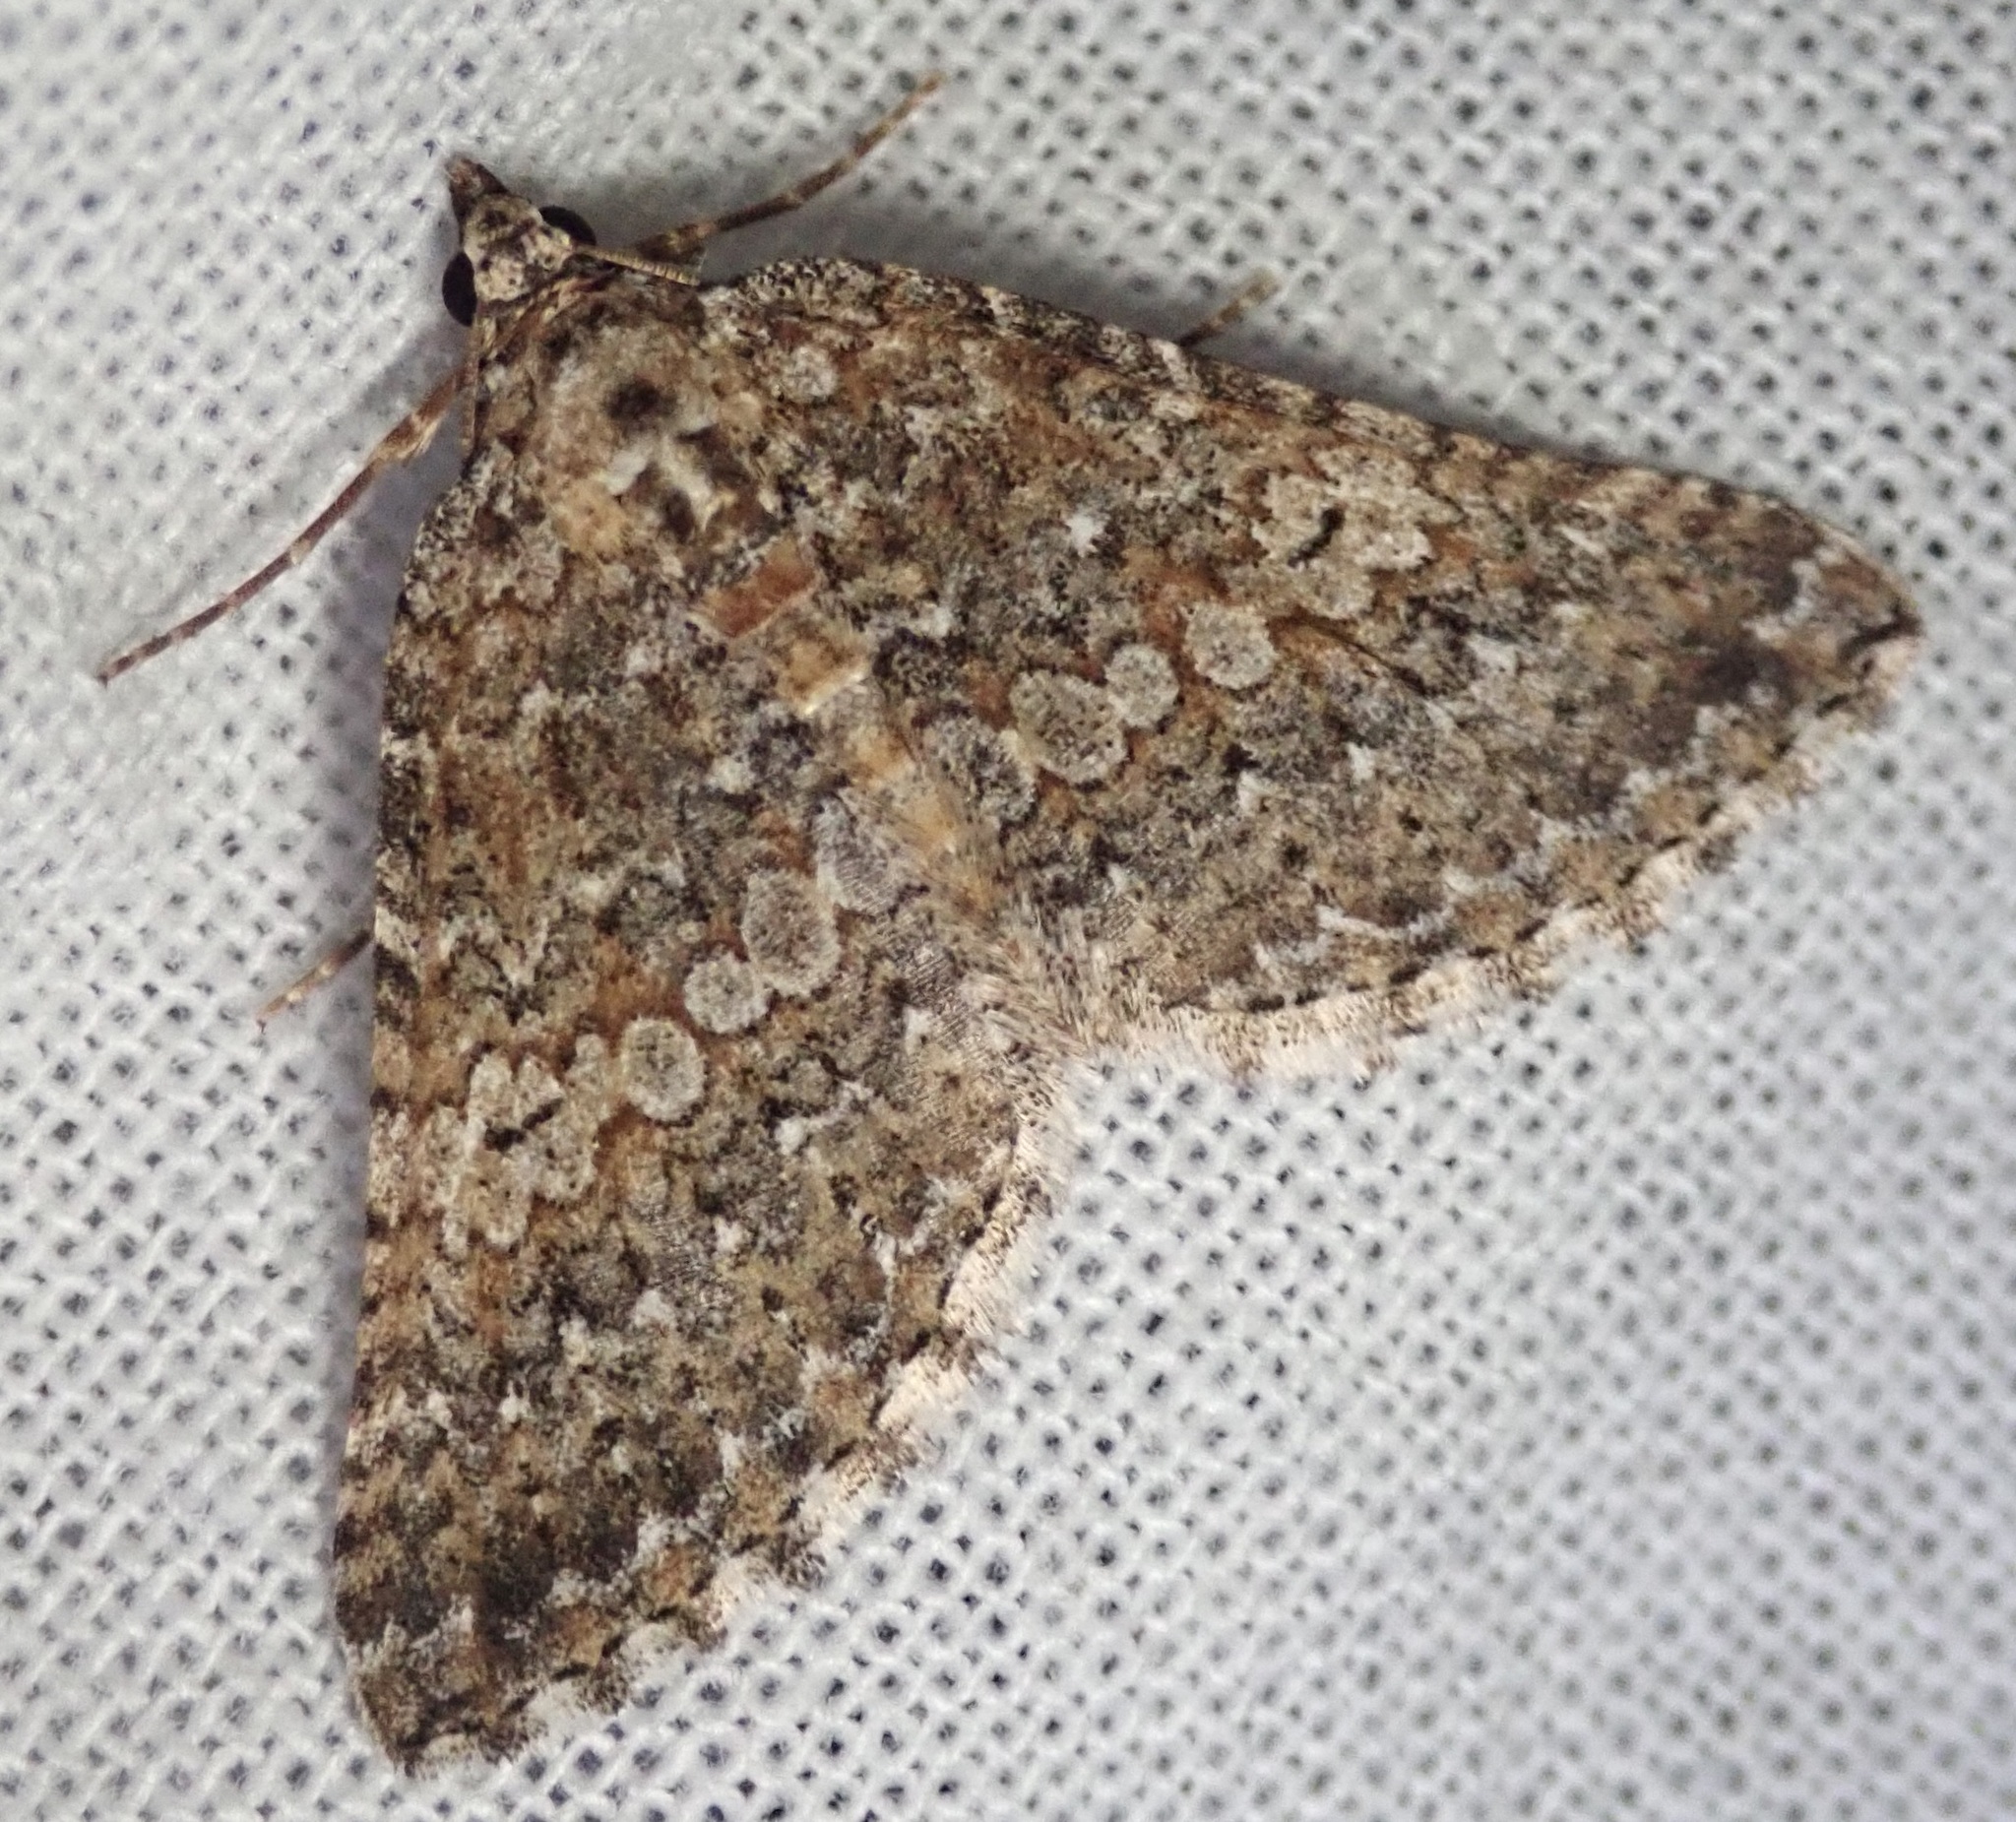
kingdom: Animalia
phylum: Arthropoda
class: Insecta
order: Lepidoptera
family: Geometridae
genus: Euphyia
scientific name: Euphyia implicata
